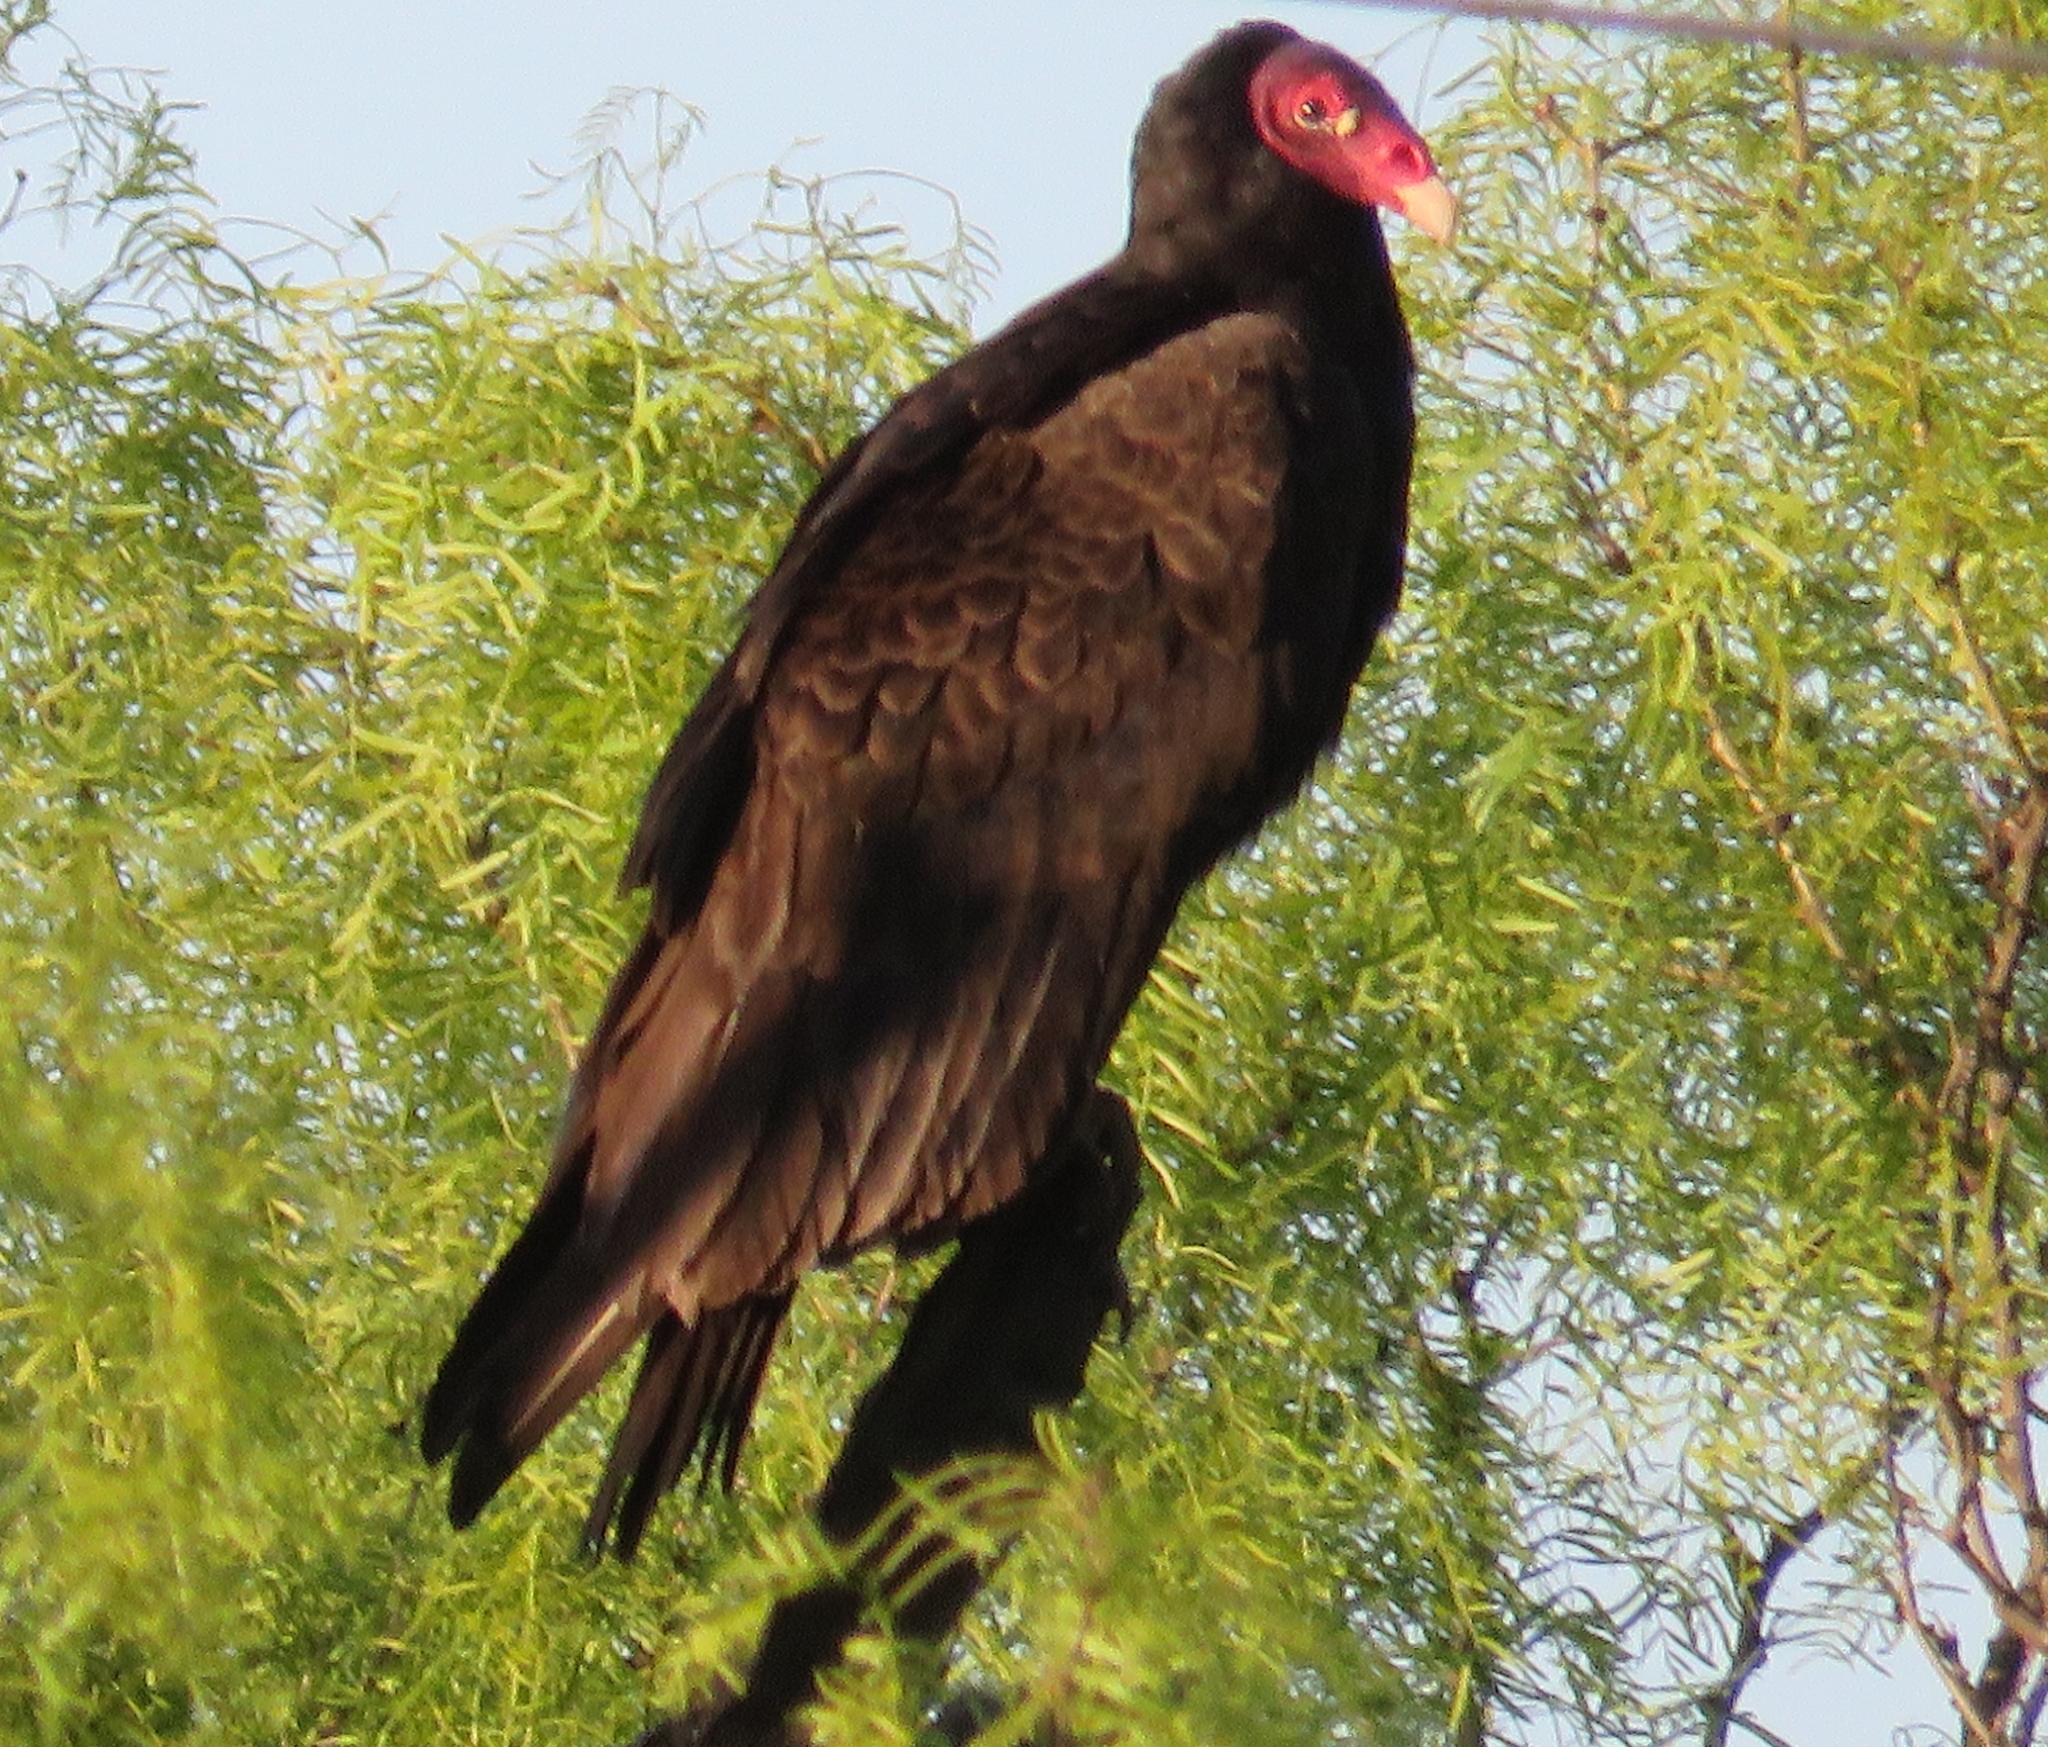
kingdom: Animalia
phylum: Chordata
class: Aves
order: Accipitriformes
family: Cathartidae
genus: Cathartes
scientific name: Cathartes aura
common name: Turkey vulture
